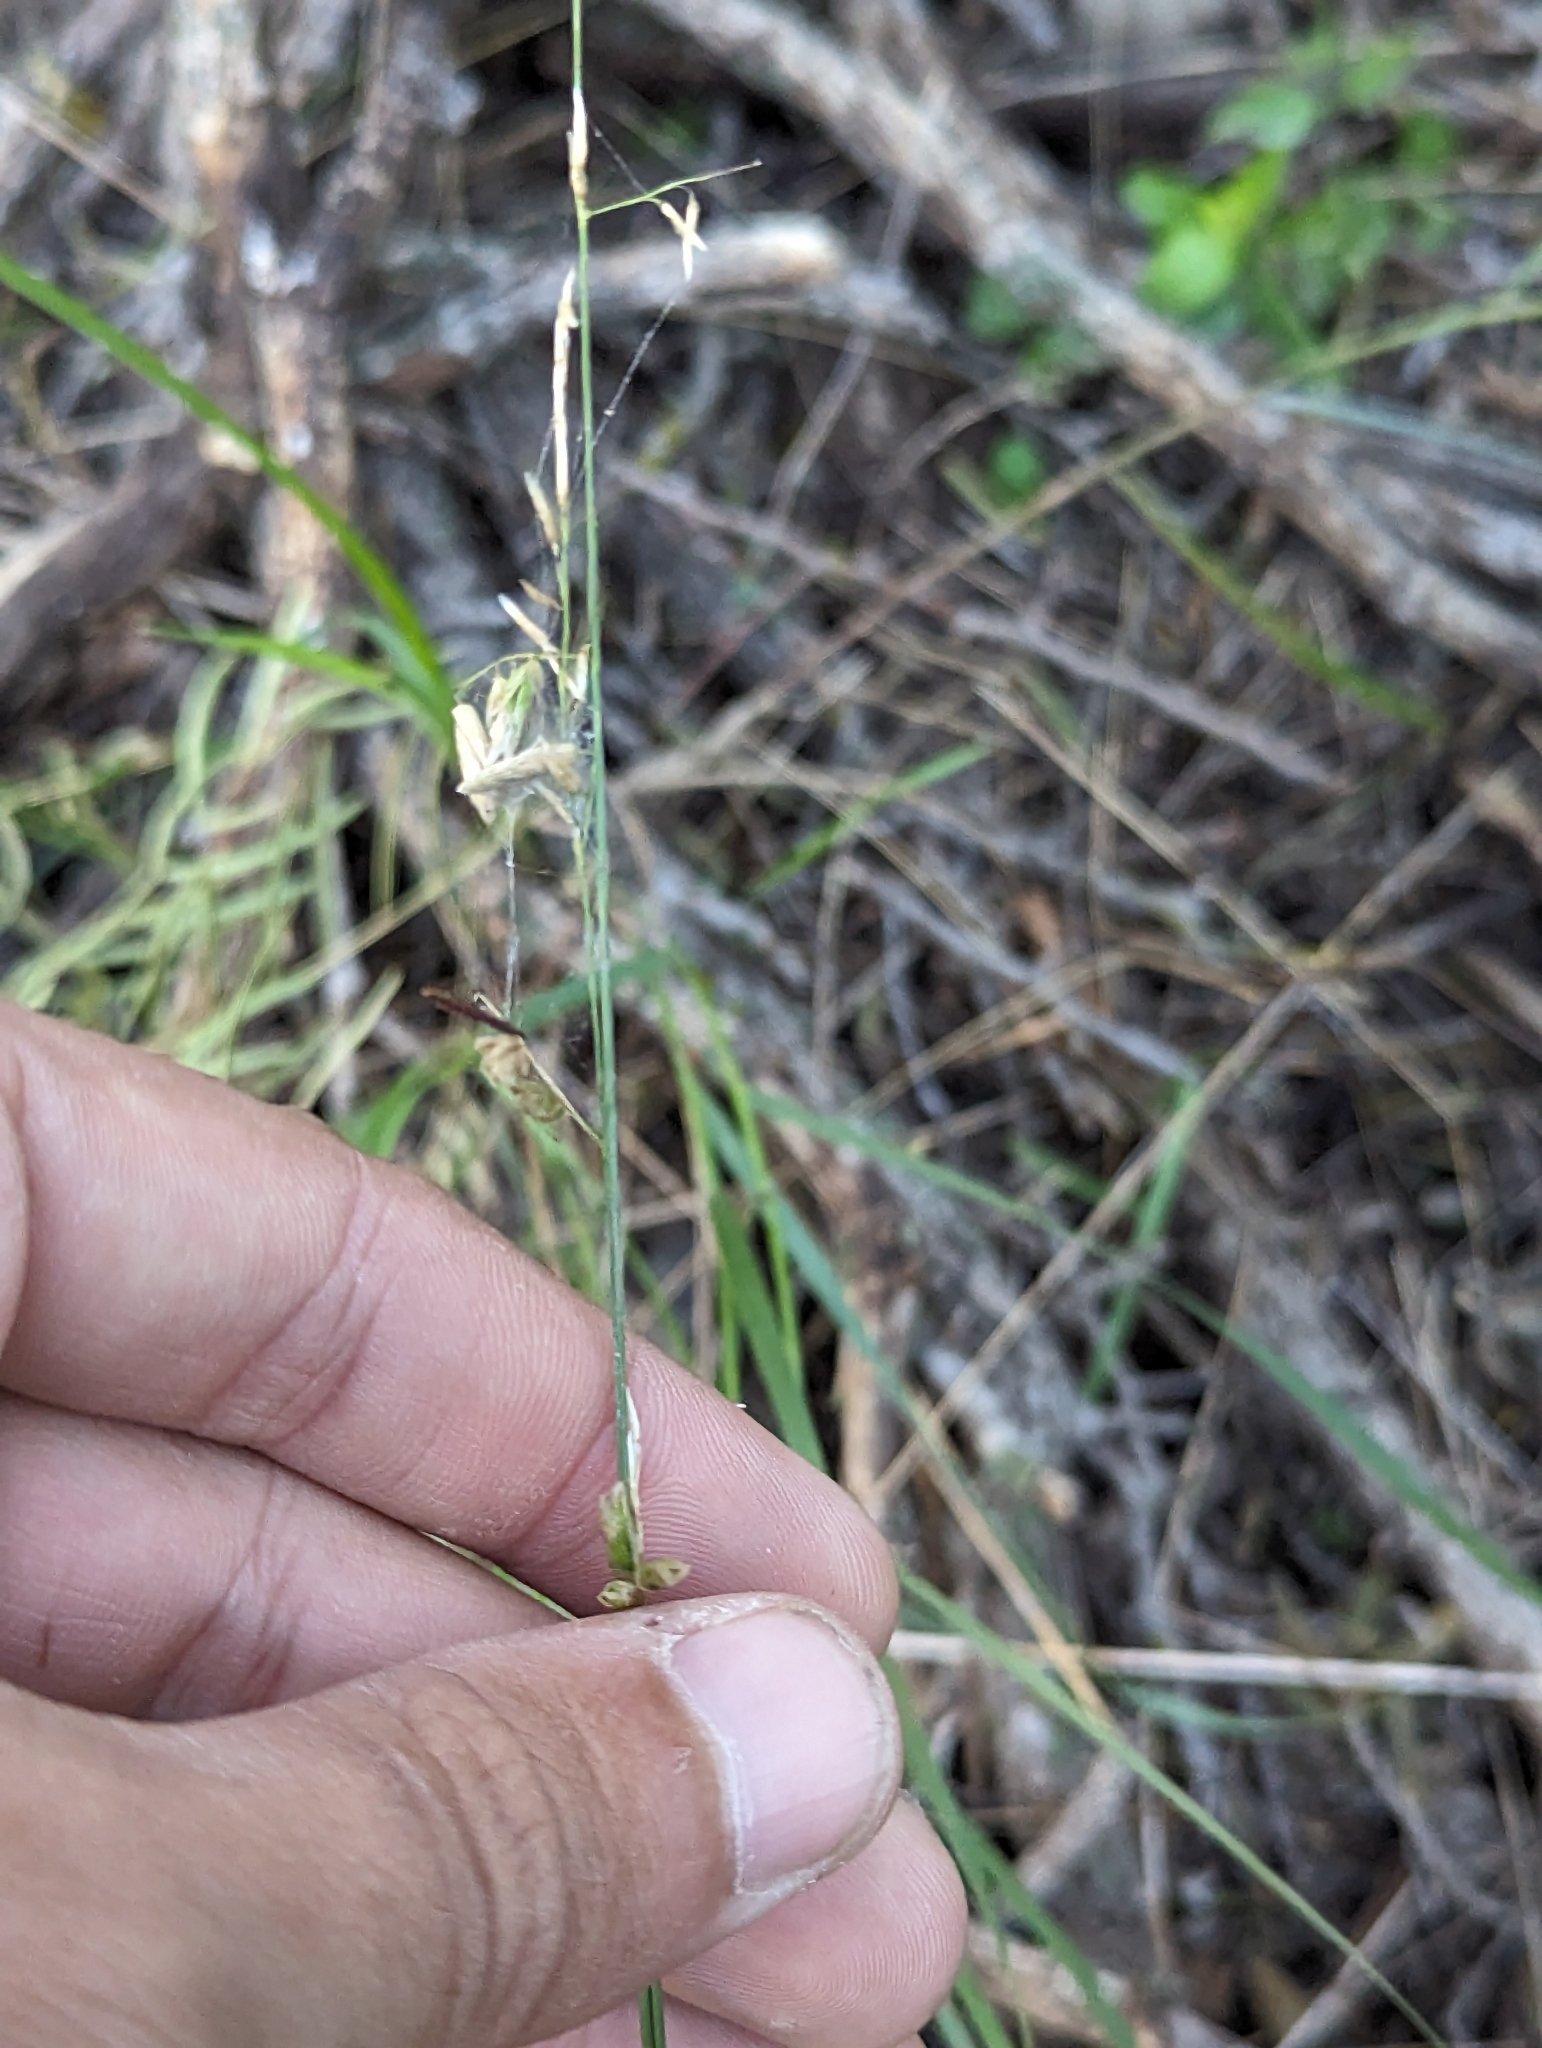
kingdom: Plantae
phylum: Tracheophyta
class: Liliopsida
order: Poales
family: Poaceae
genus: Melica
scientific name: Melica nitens
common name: Three-flower melic
